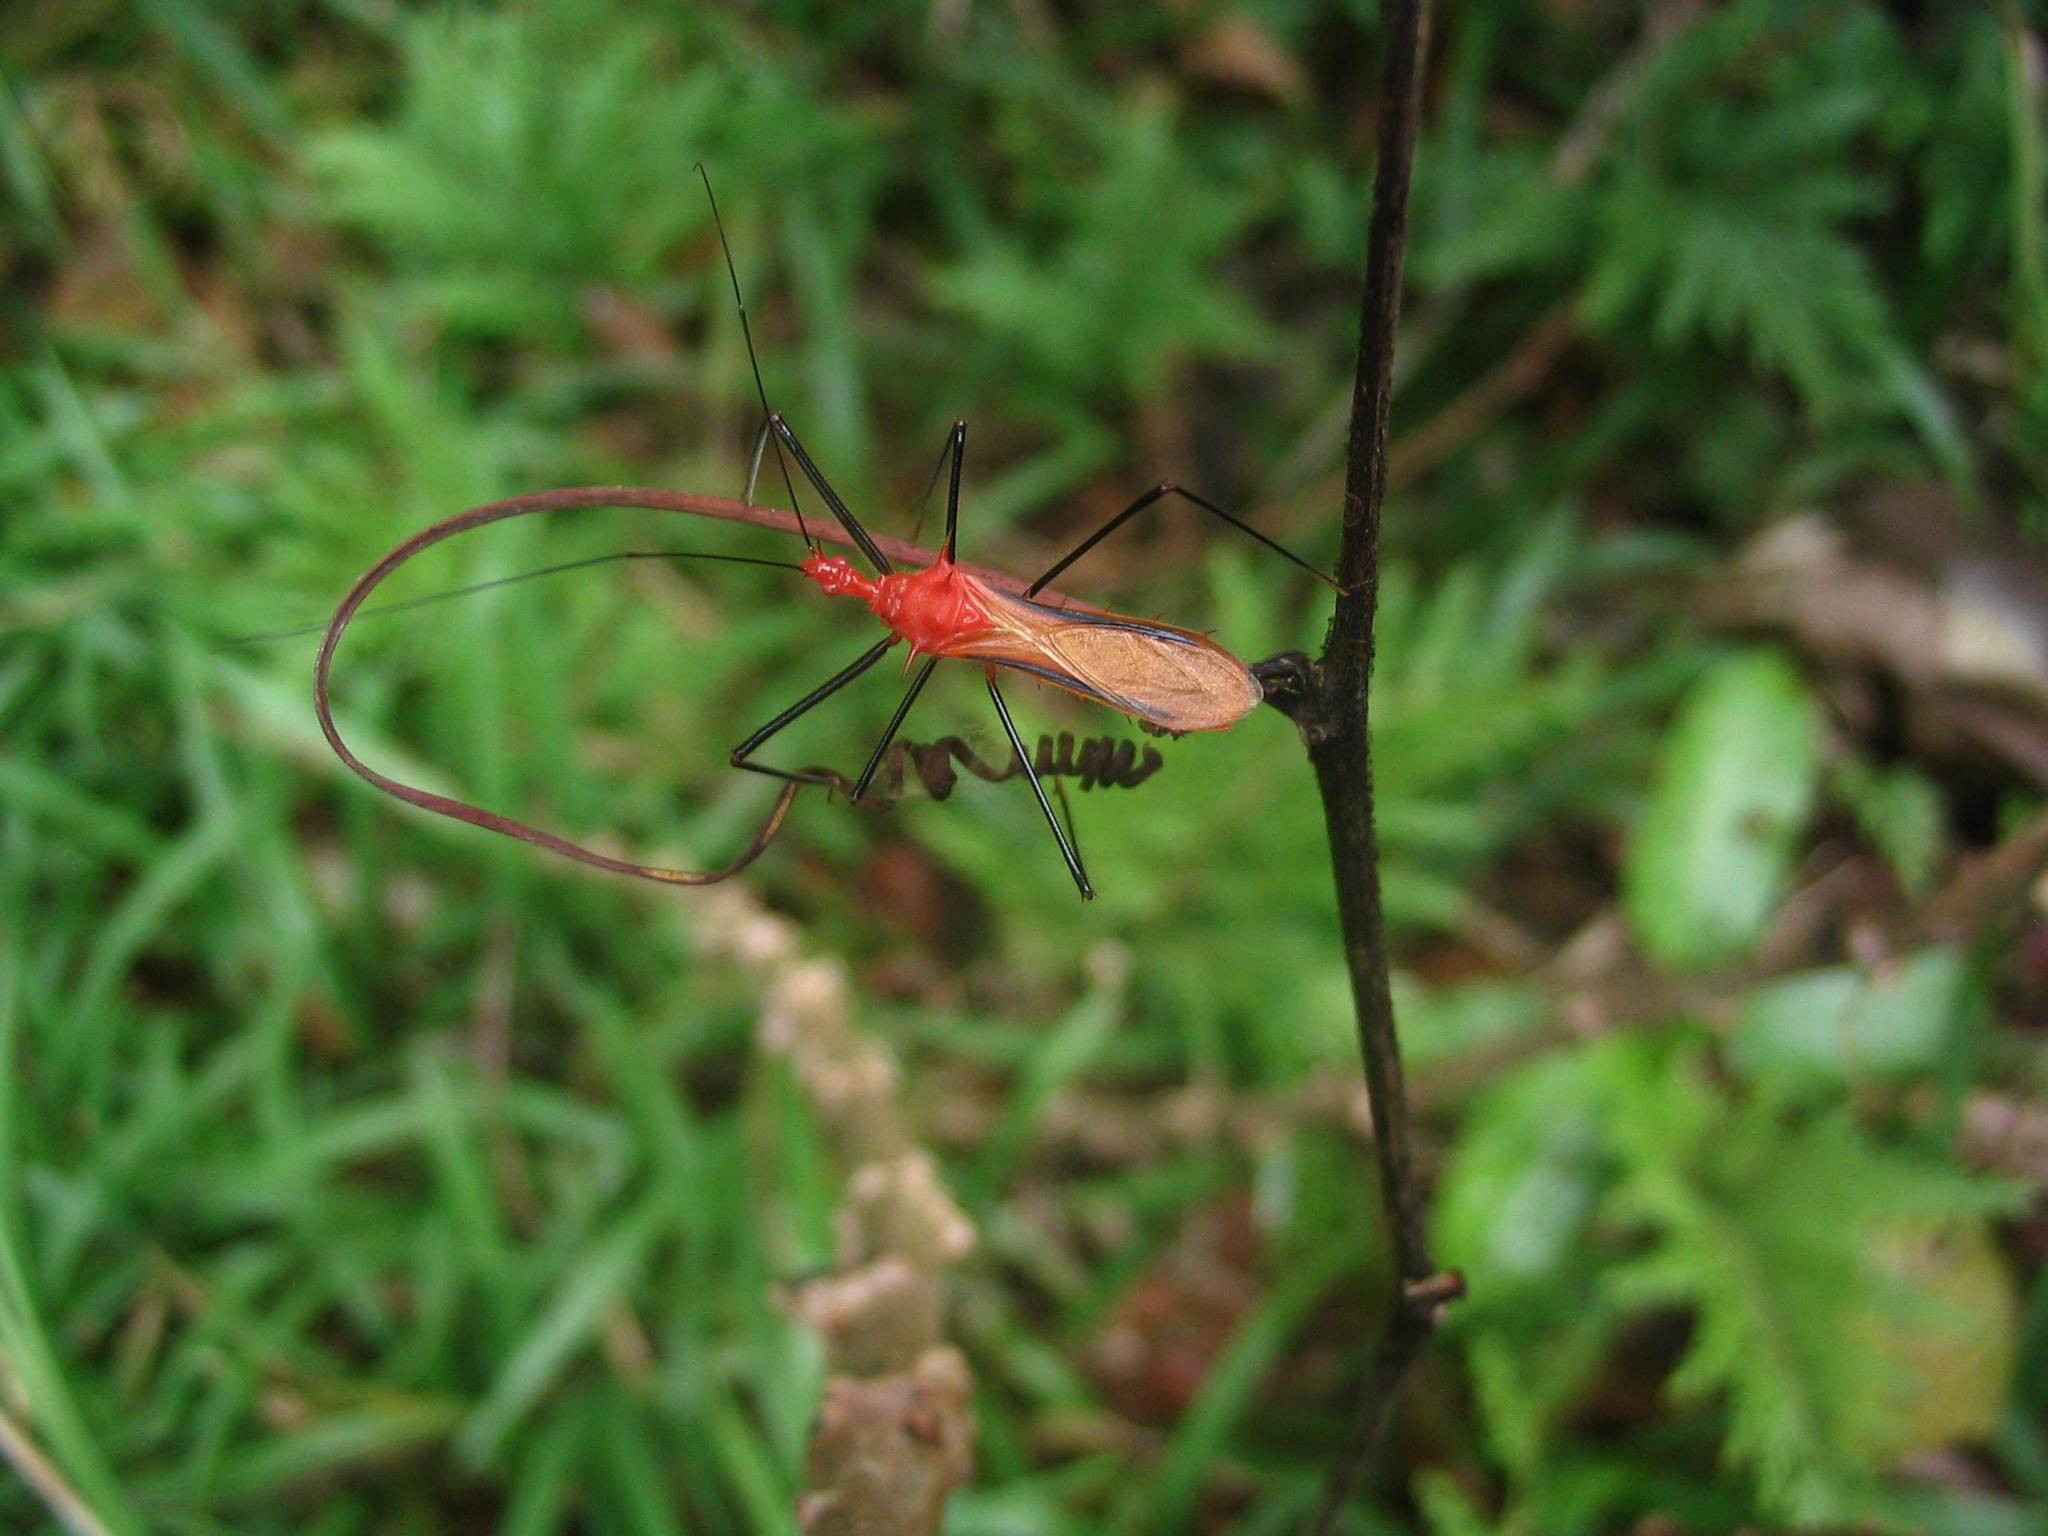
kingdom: Animalia
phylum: Arthropoda
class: Insecta
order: Hemiptera
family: Reduviidae
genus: Ricolla
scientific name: Ricolla quadrispinosa
